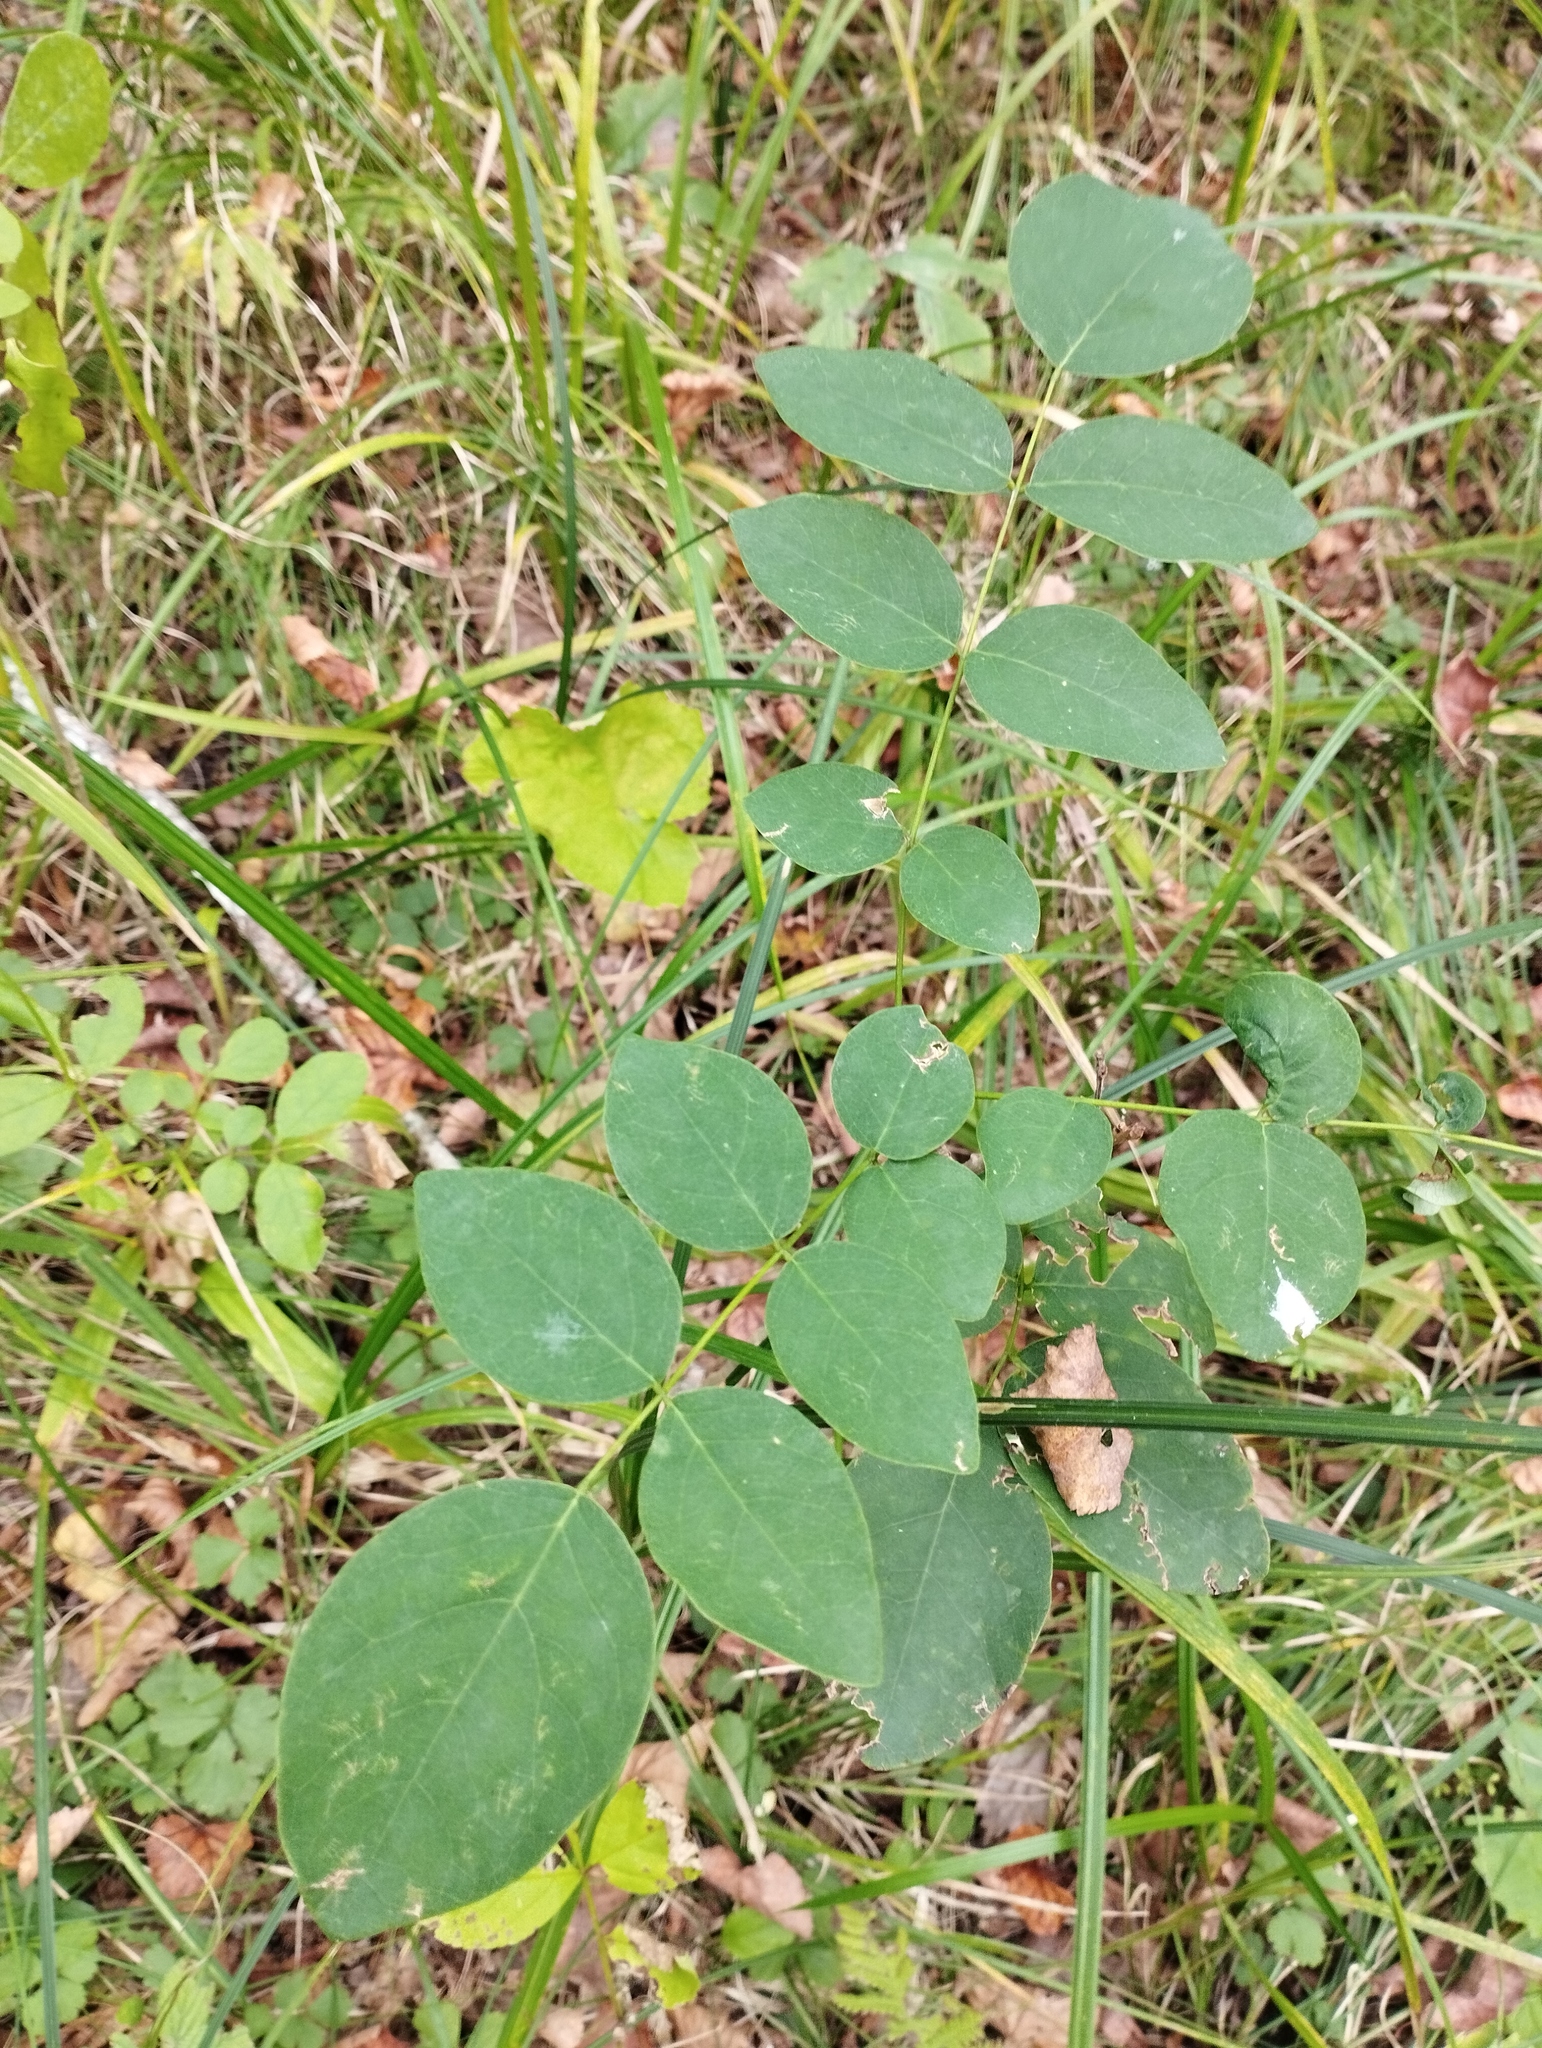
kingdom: Plantae
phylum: Tracheophyta
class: Magnoliopsida
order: Fabales
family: Fabaceae
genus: Maackia
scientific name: Maackia amurensis
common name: Amur maackia
